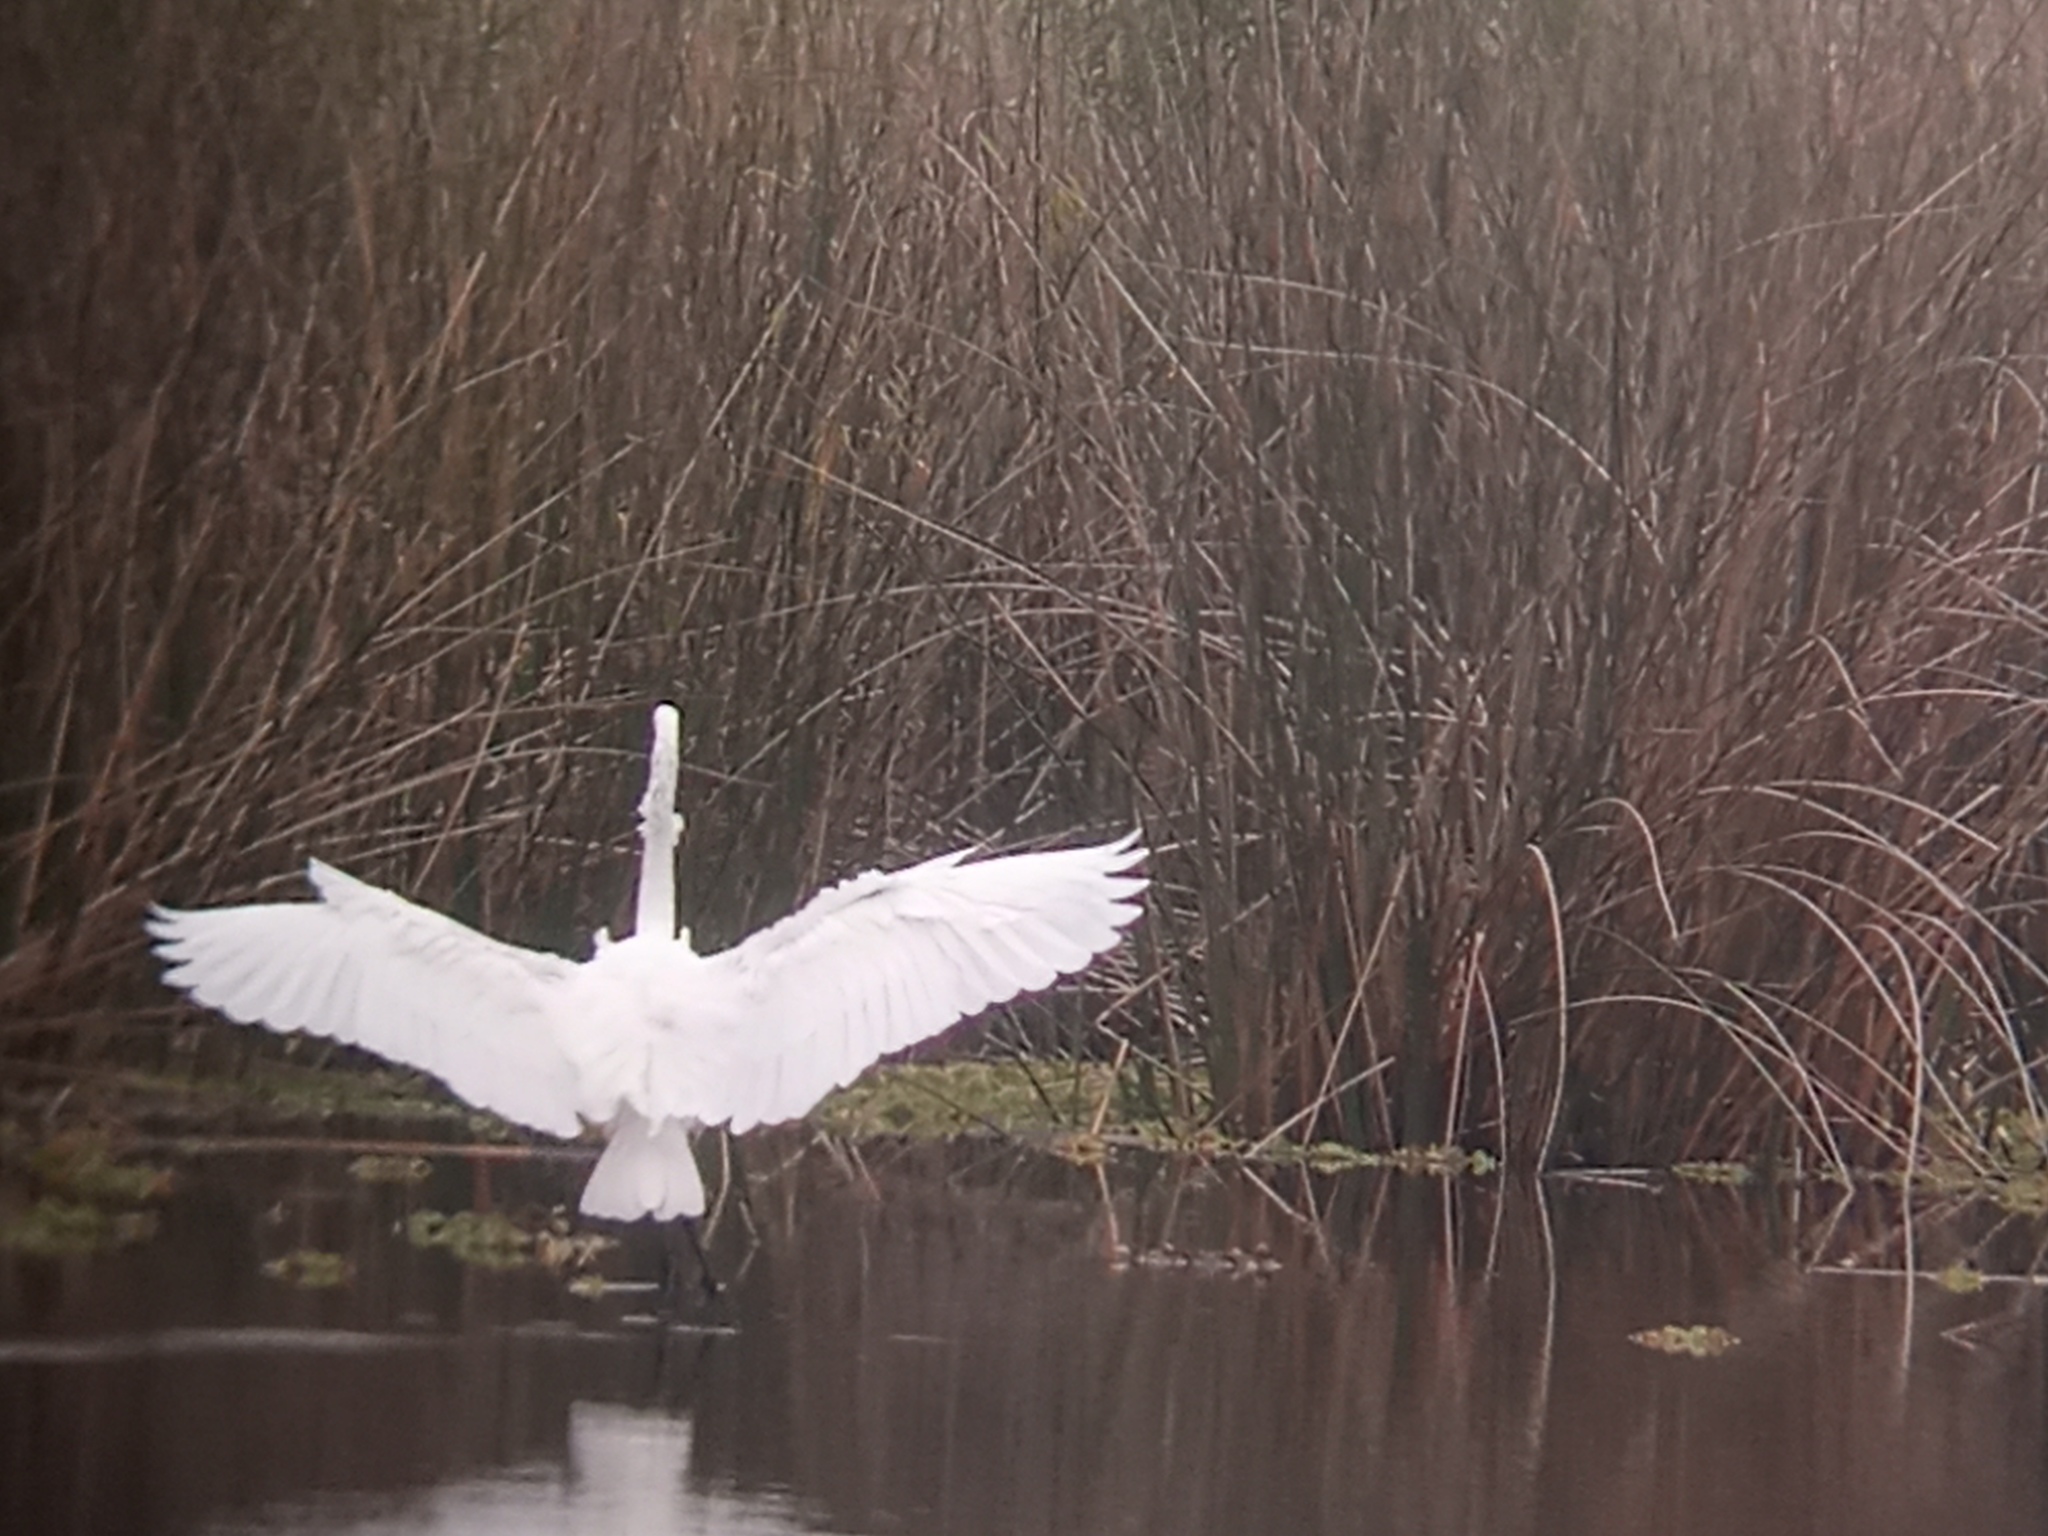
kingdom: Animalia
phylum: Chordata
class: Aves
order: Pelecaniformes
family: Ardeidae
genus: Ardea
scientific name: Ardea alba
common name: Great egret
